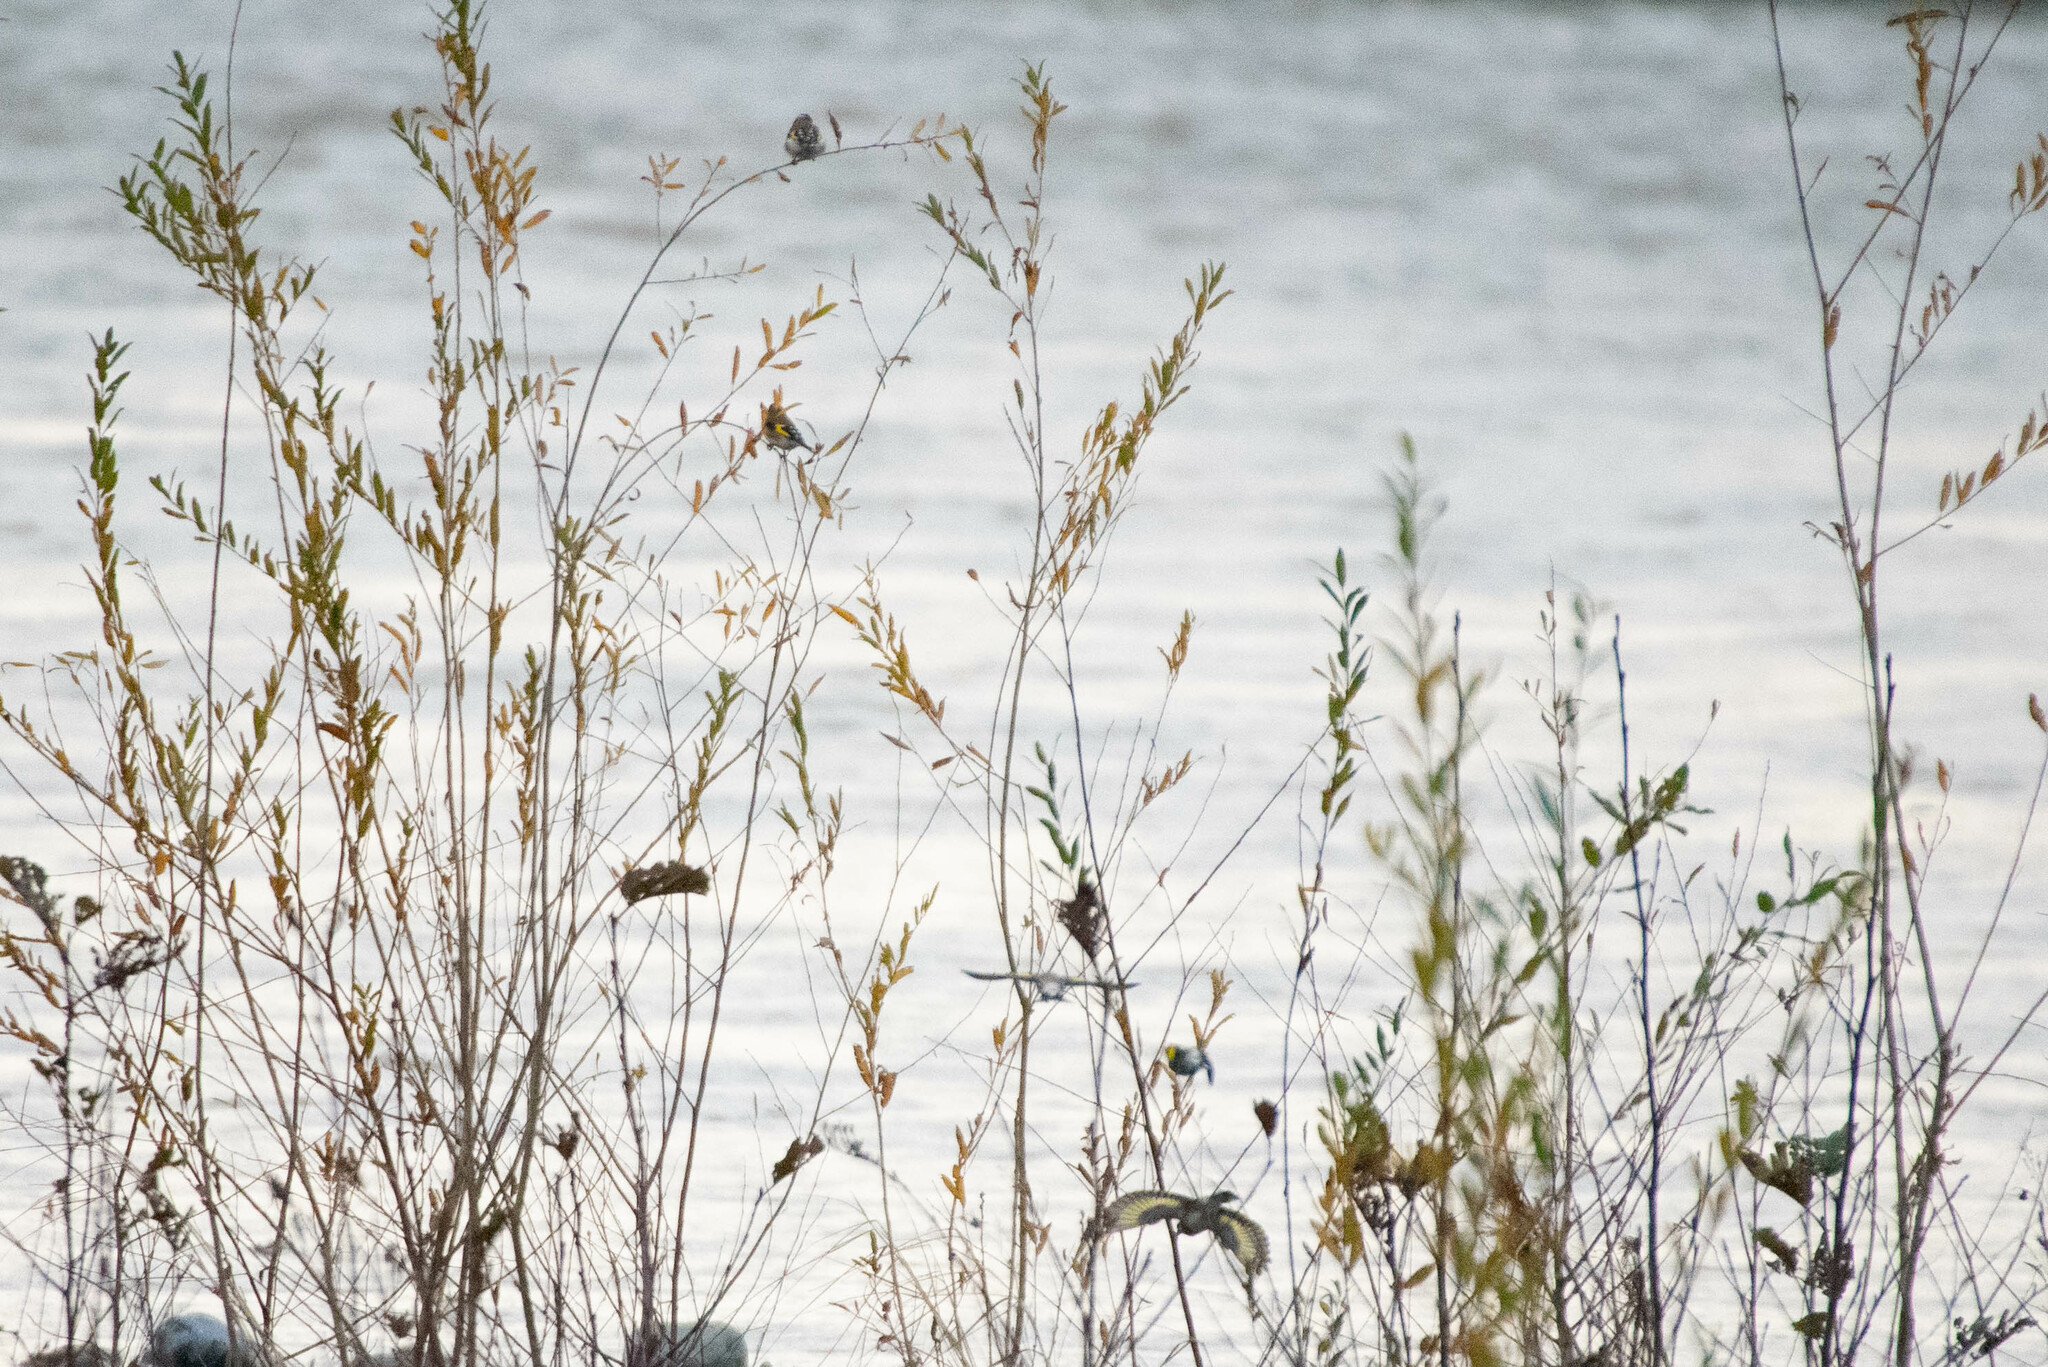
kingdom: Animalia
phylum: Chordata
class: Aves
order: Passeriformes
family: Fringillidae
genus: Carduelis
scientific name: Carduelis carduelis
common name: European goldfinch
